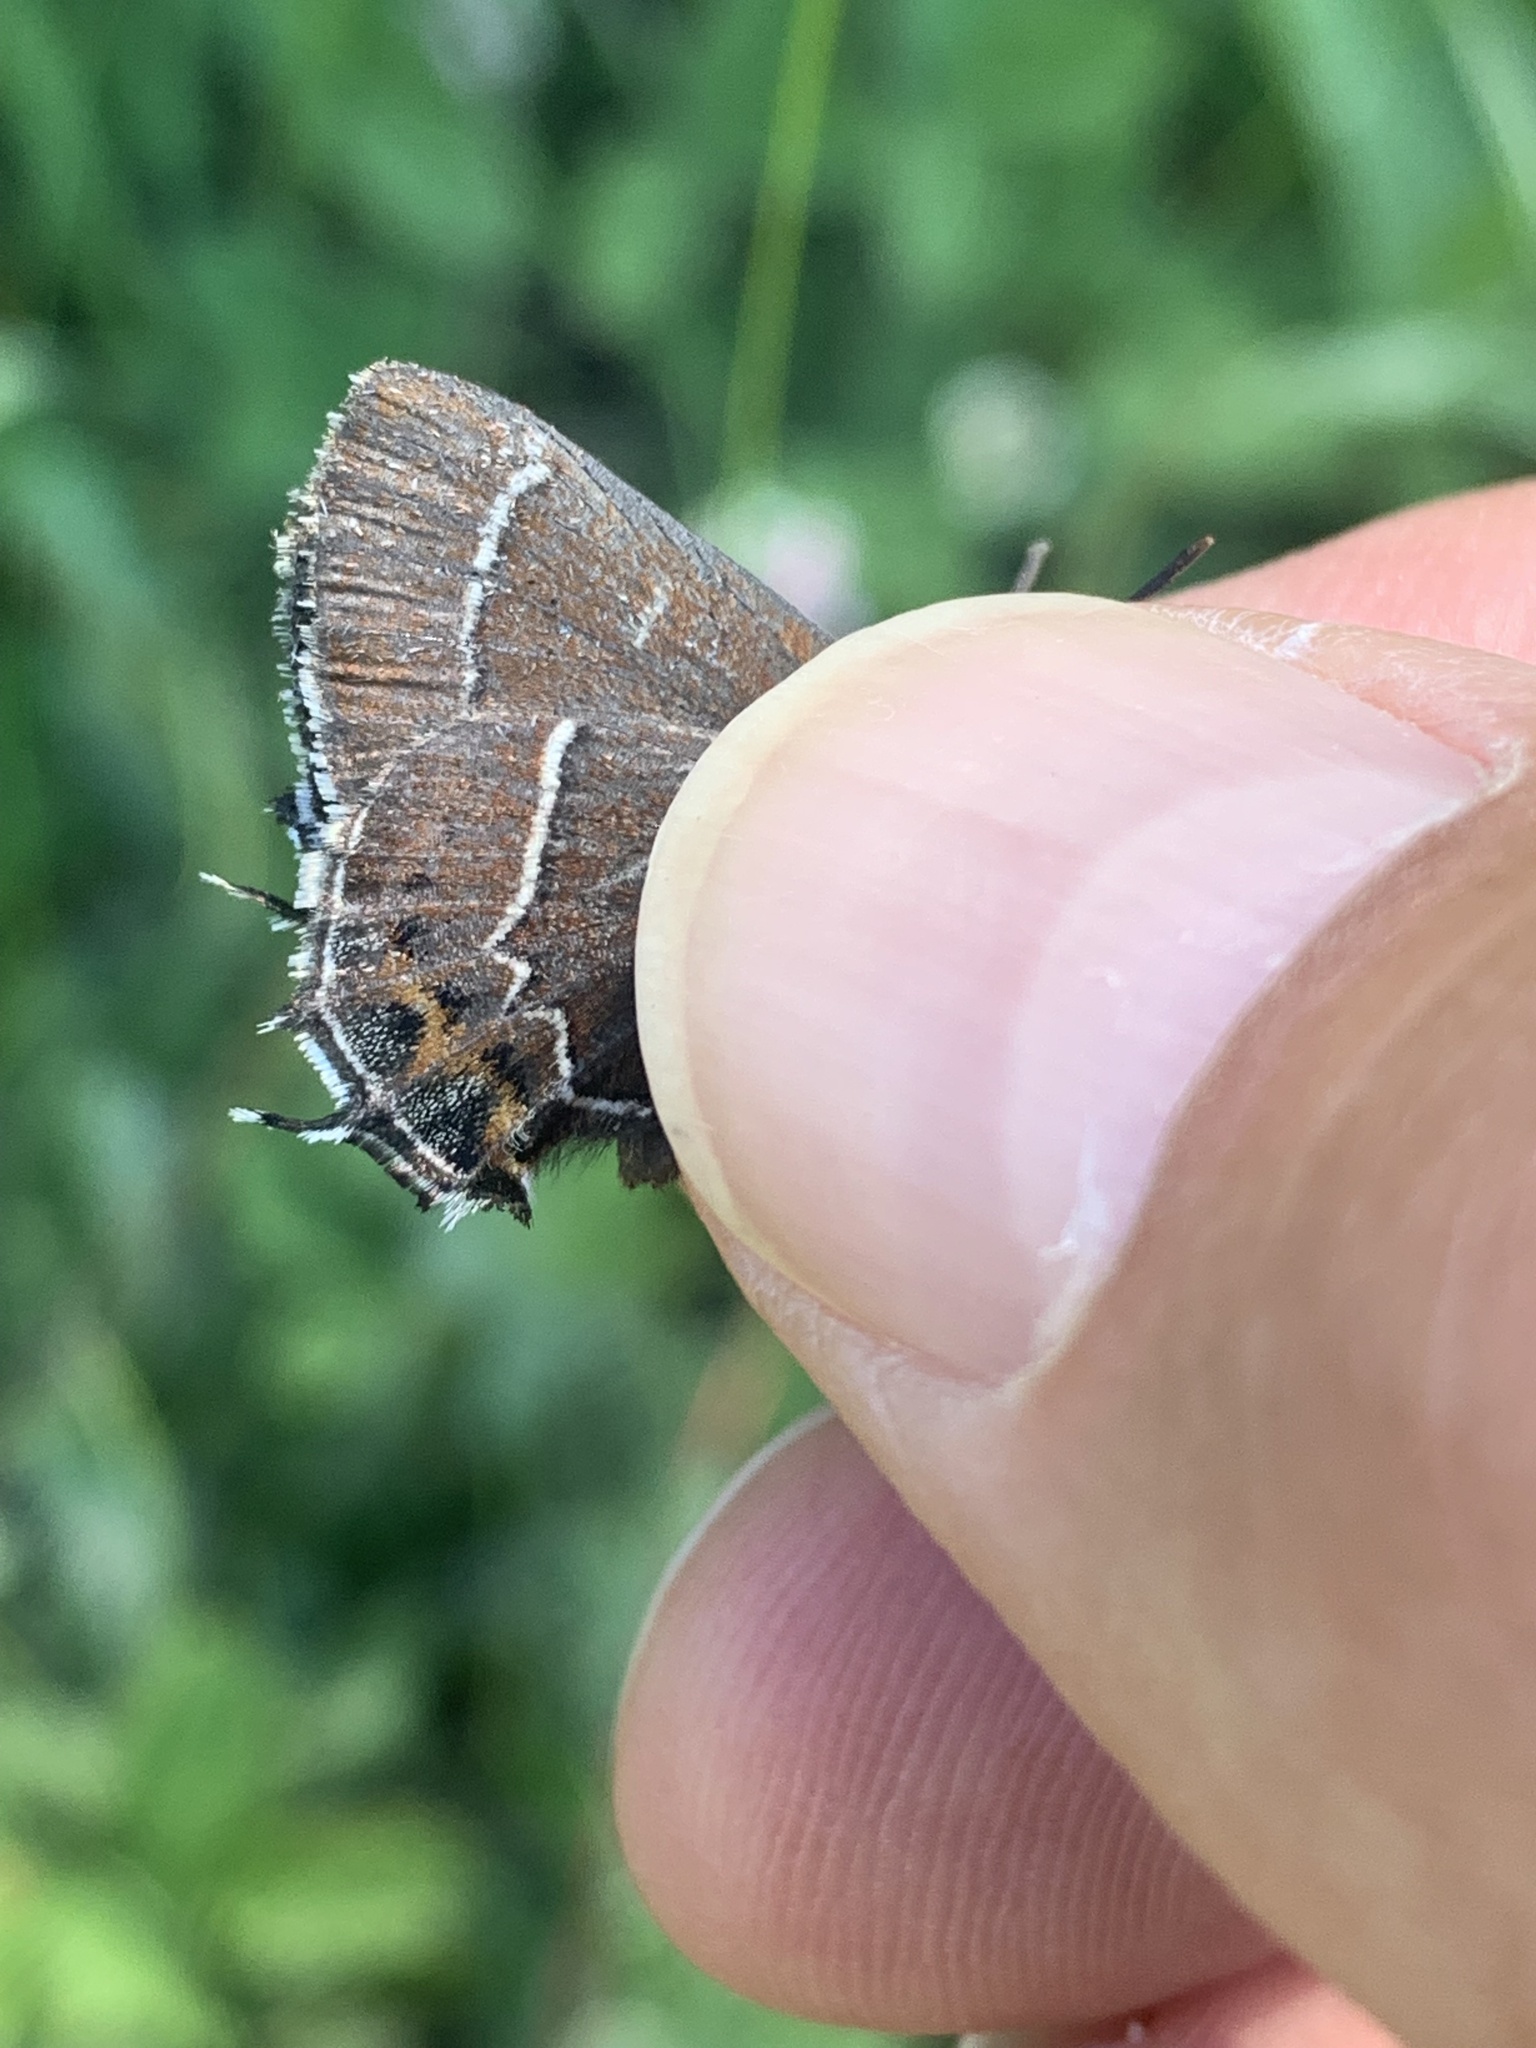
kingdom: Animalia
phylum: Arthropoda
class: Insecta
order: Lepidoptera
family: Lycaenidae
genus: Mitoura
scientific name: Mitoura spinetorum
